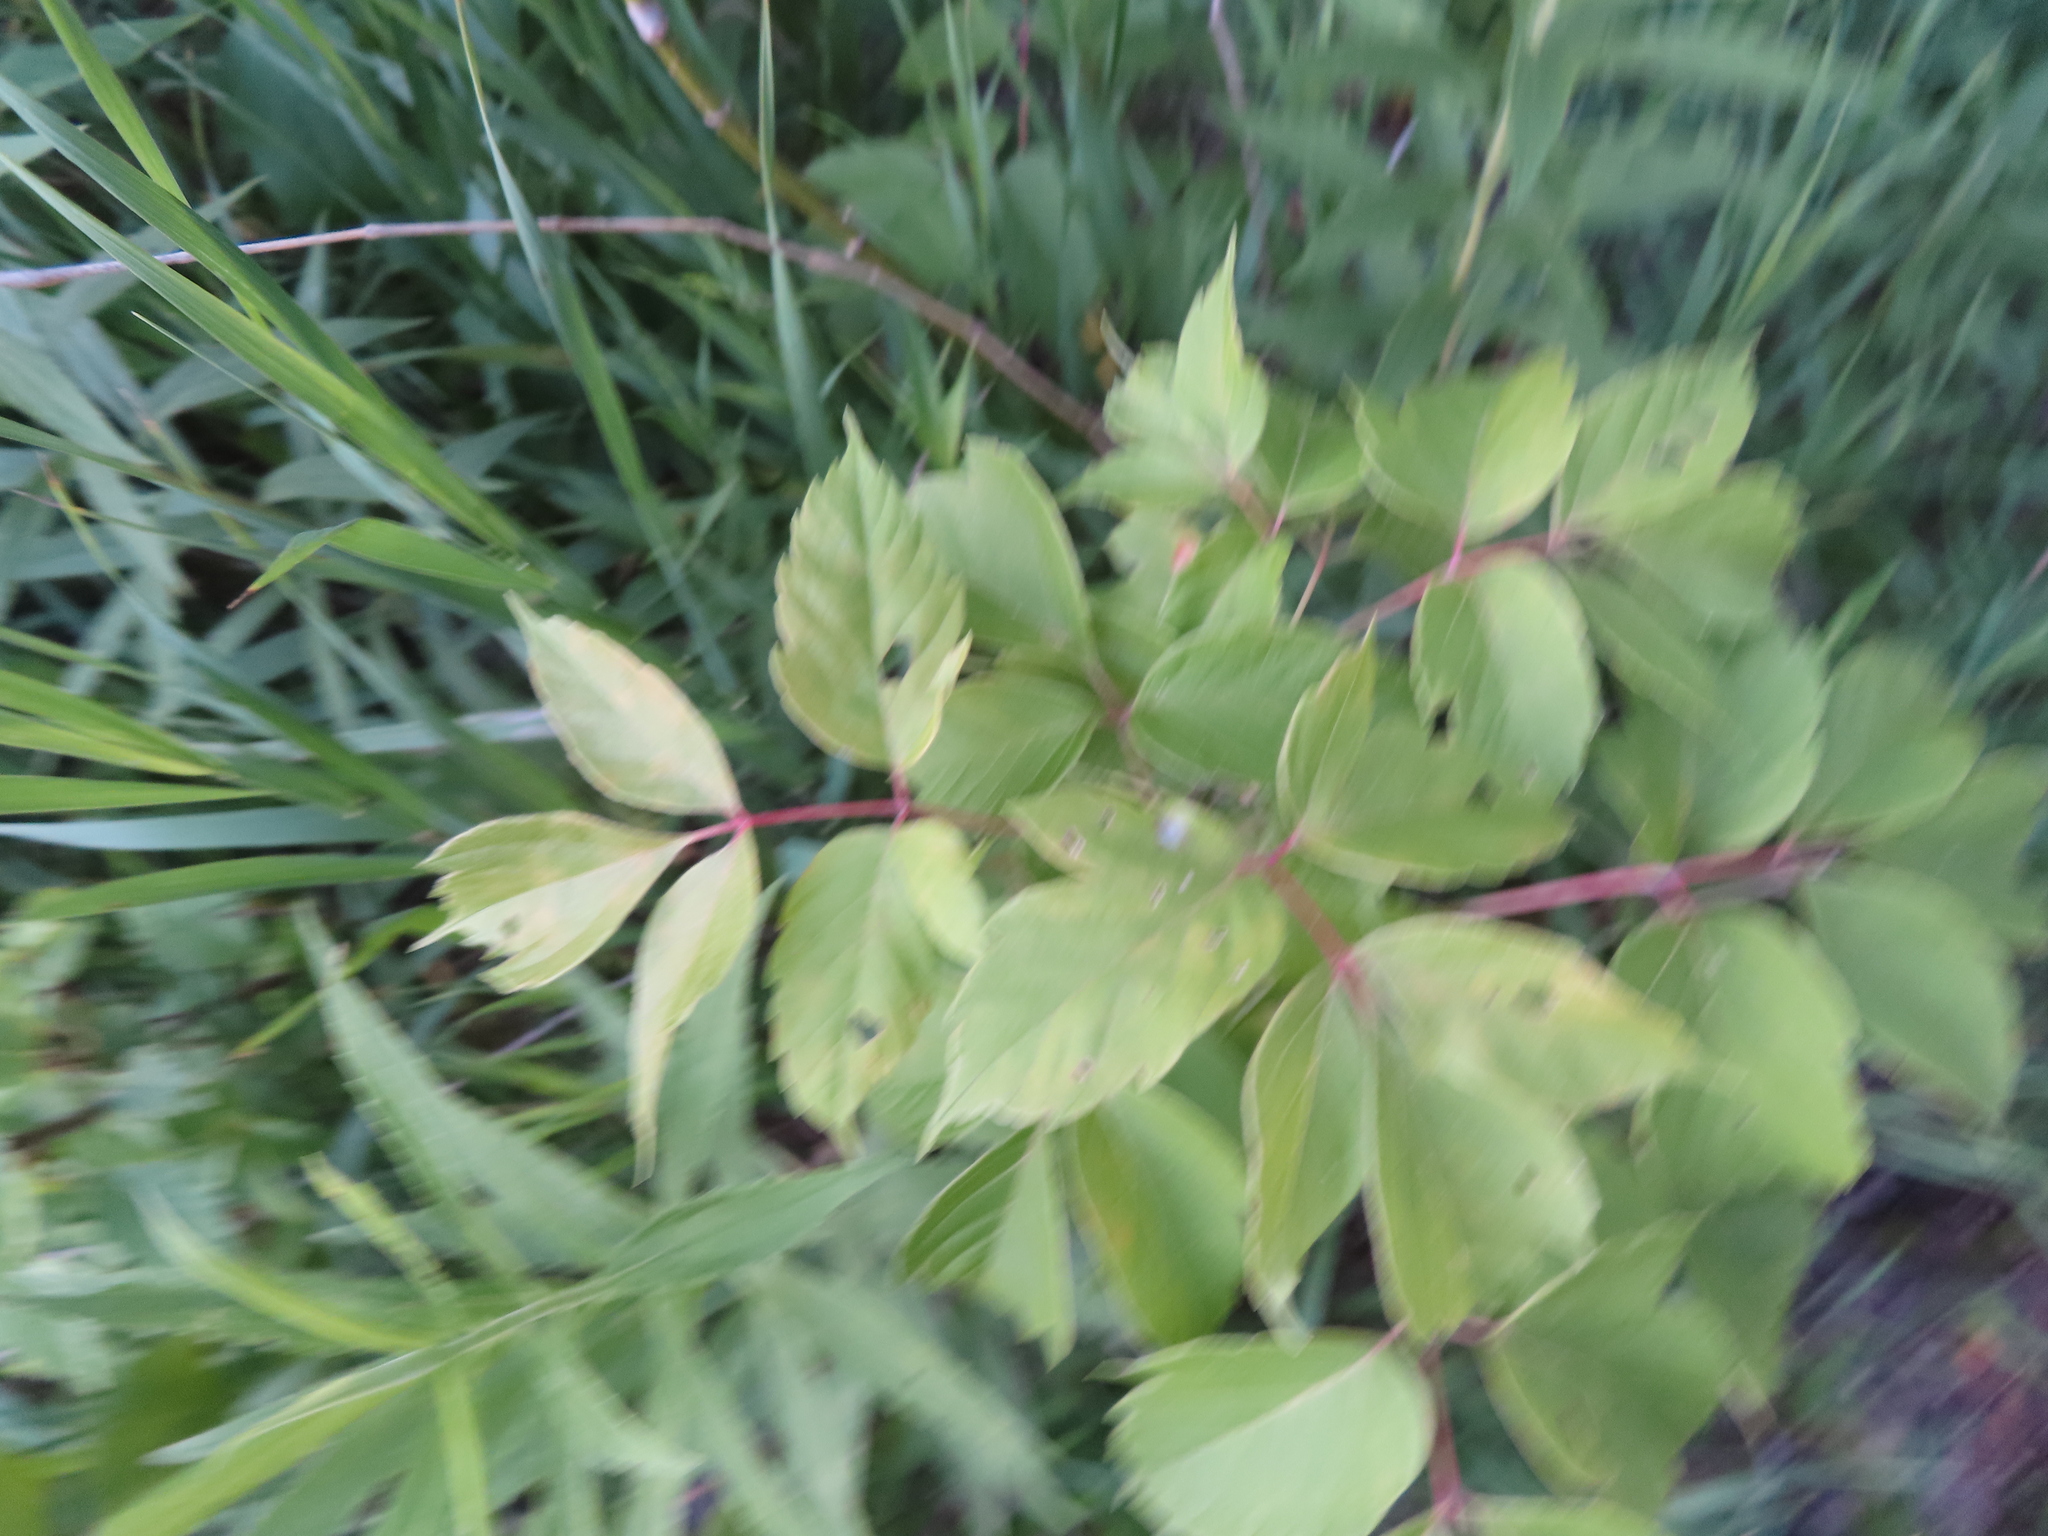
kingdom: Plantae
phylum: Tracheophyta
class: Magnoliopsida
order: Sapindales
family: Sapindaceae
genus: Acer
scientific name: Acer negundo
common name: Ashleaf maple
